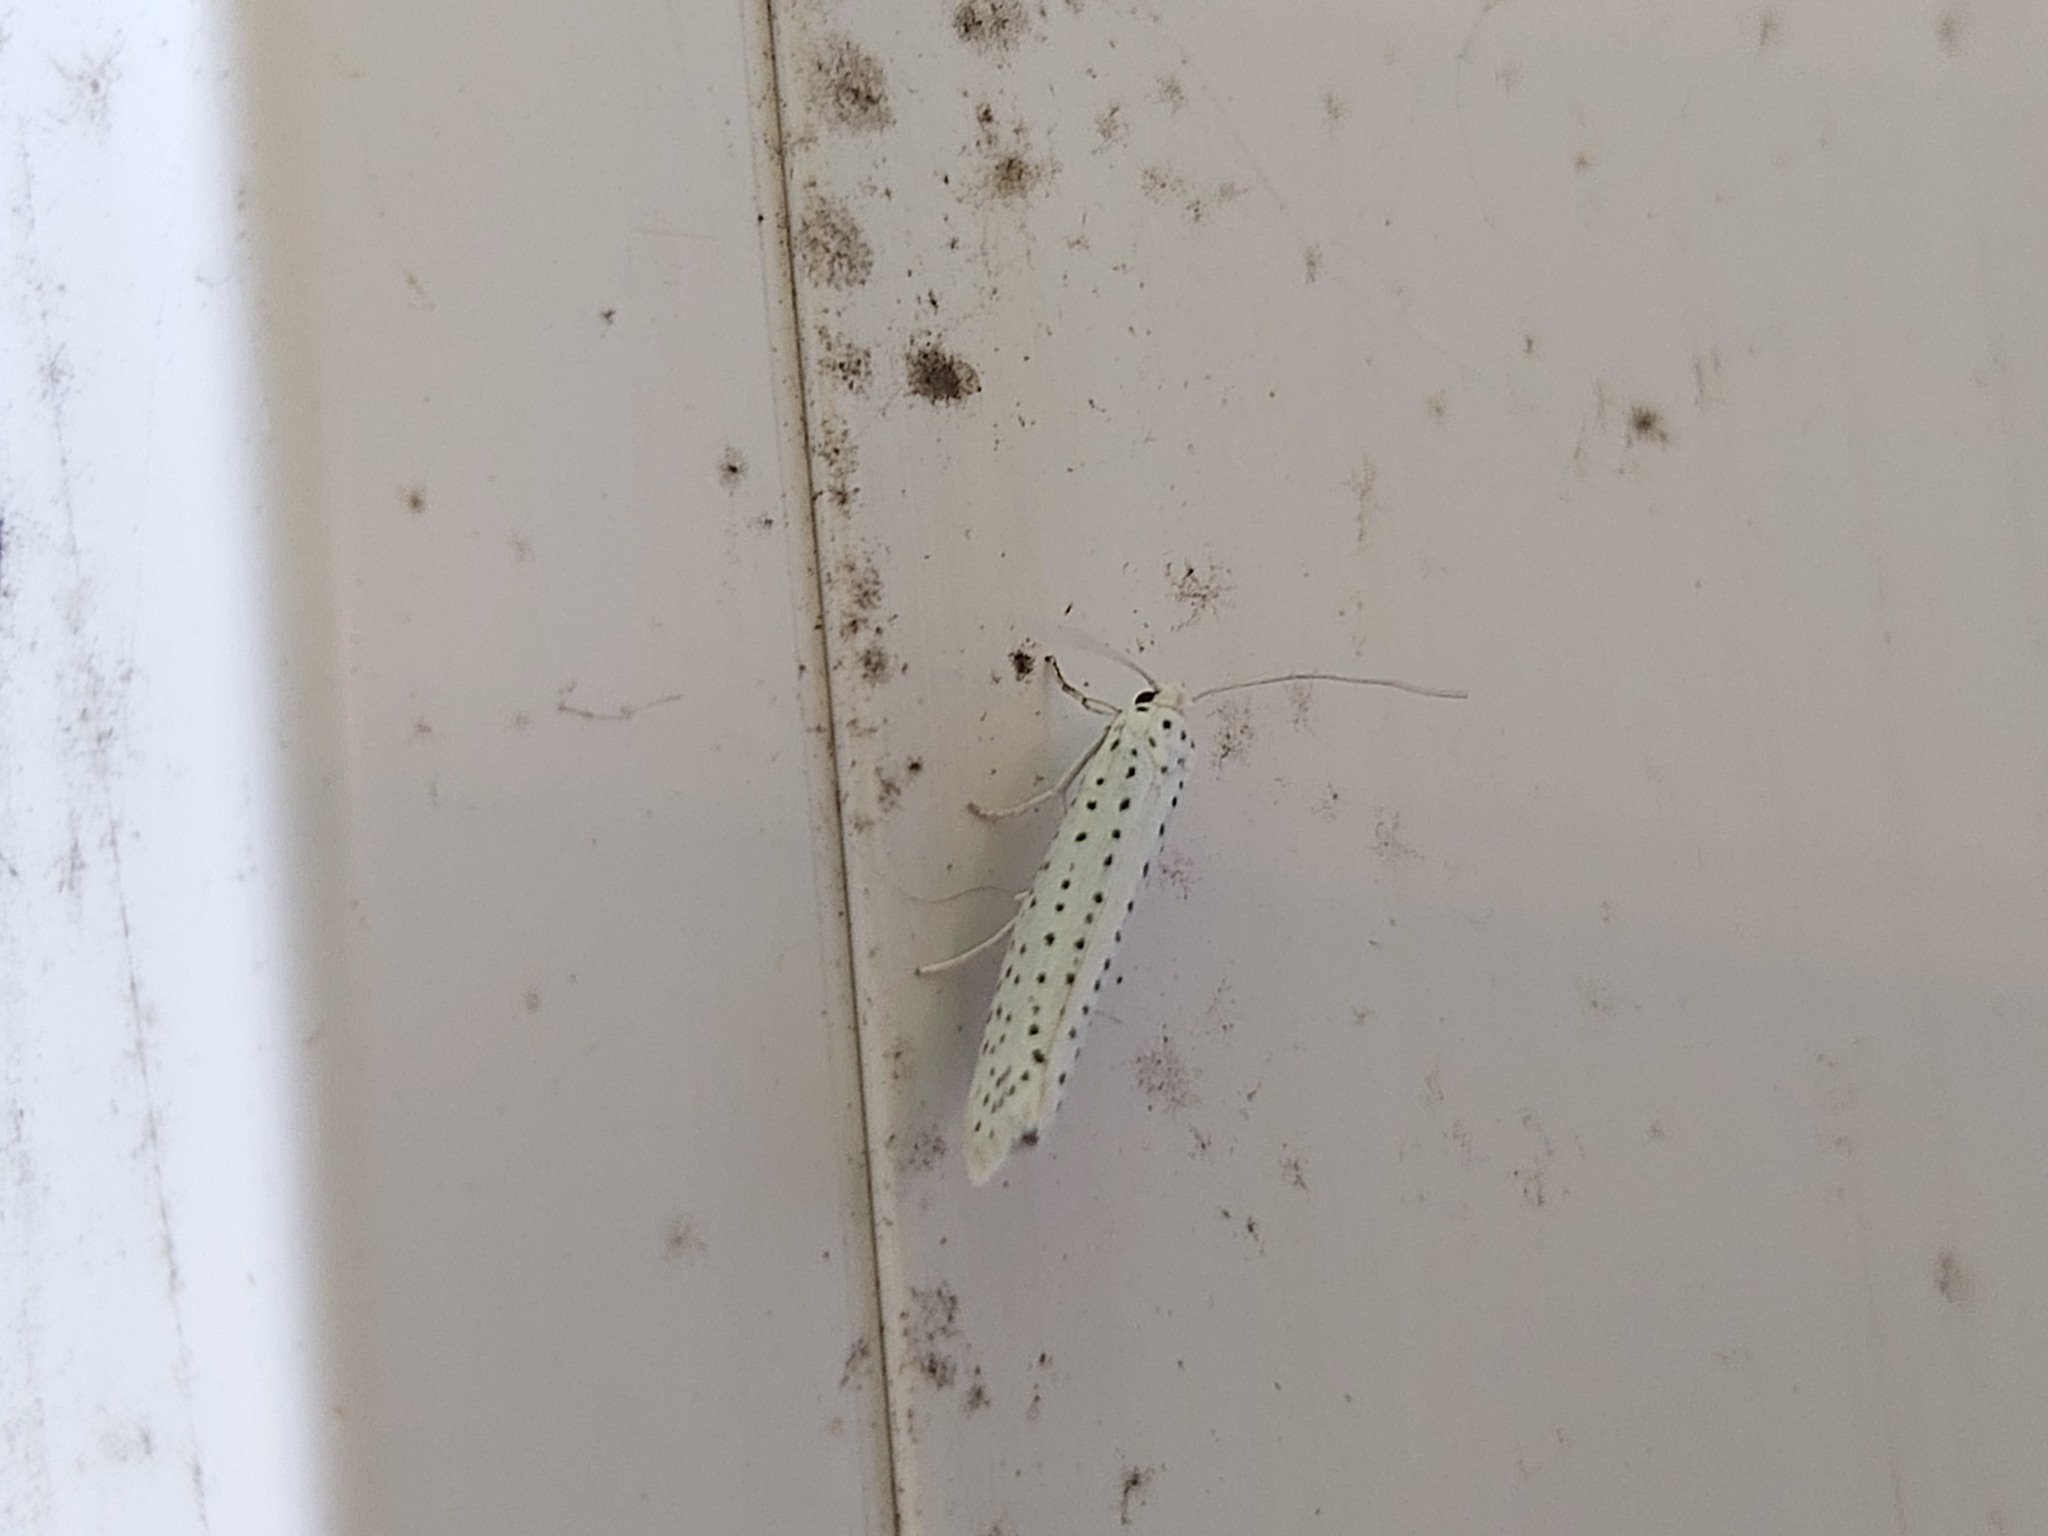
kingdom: Animalia
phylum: Arthropoda
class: Insecta
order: Lepidoptera
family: Yponomeutidae
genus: Yponomeuta
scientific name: Yponomeuta evonymella
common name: Bird-cherry ermine
